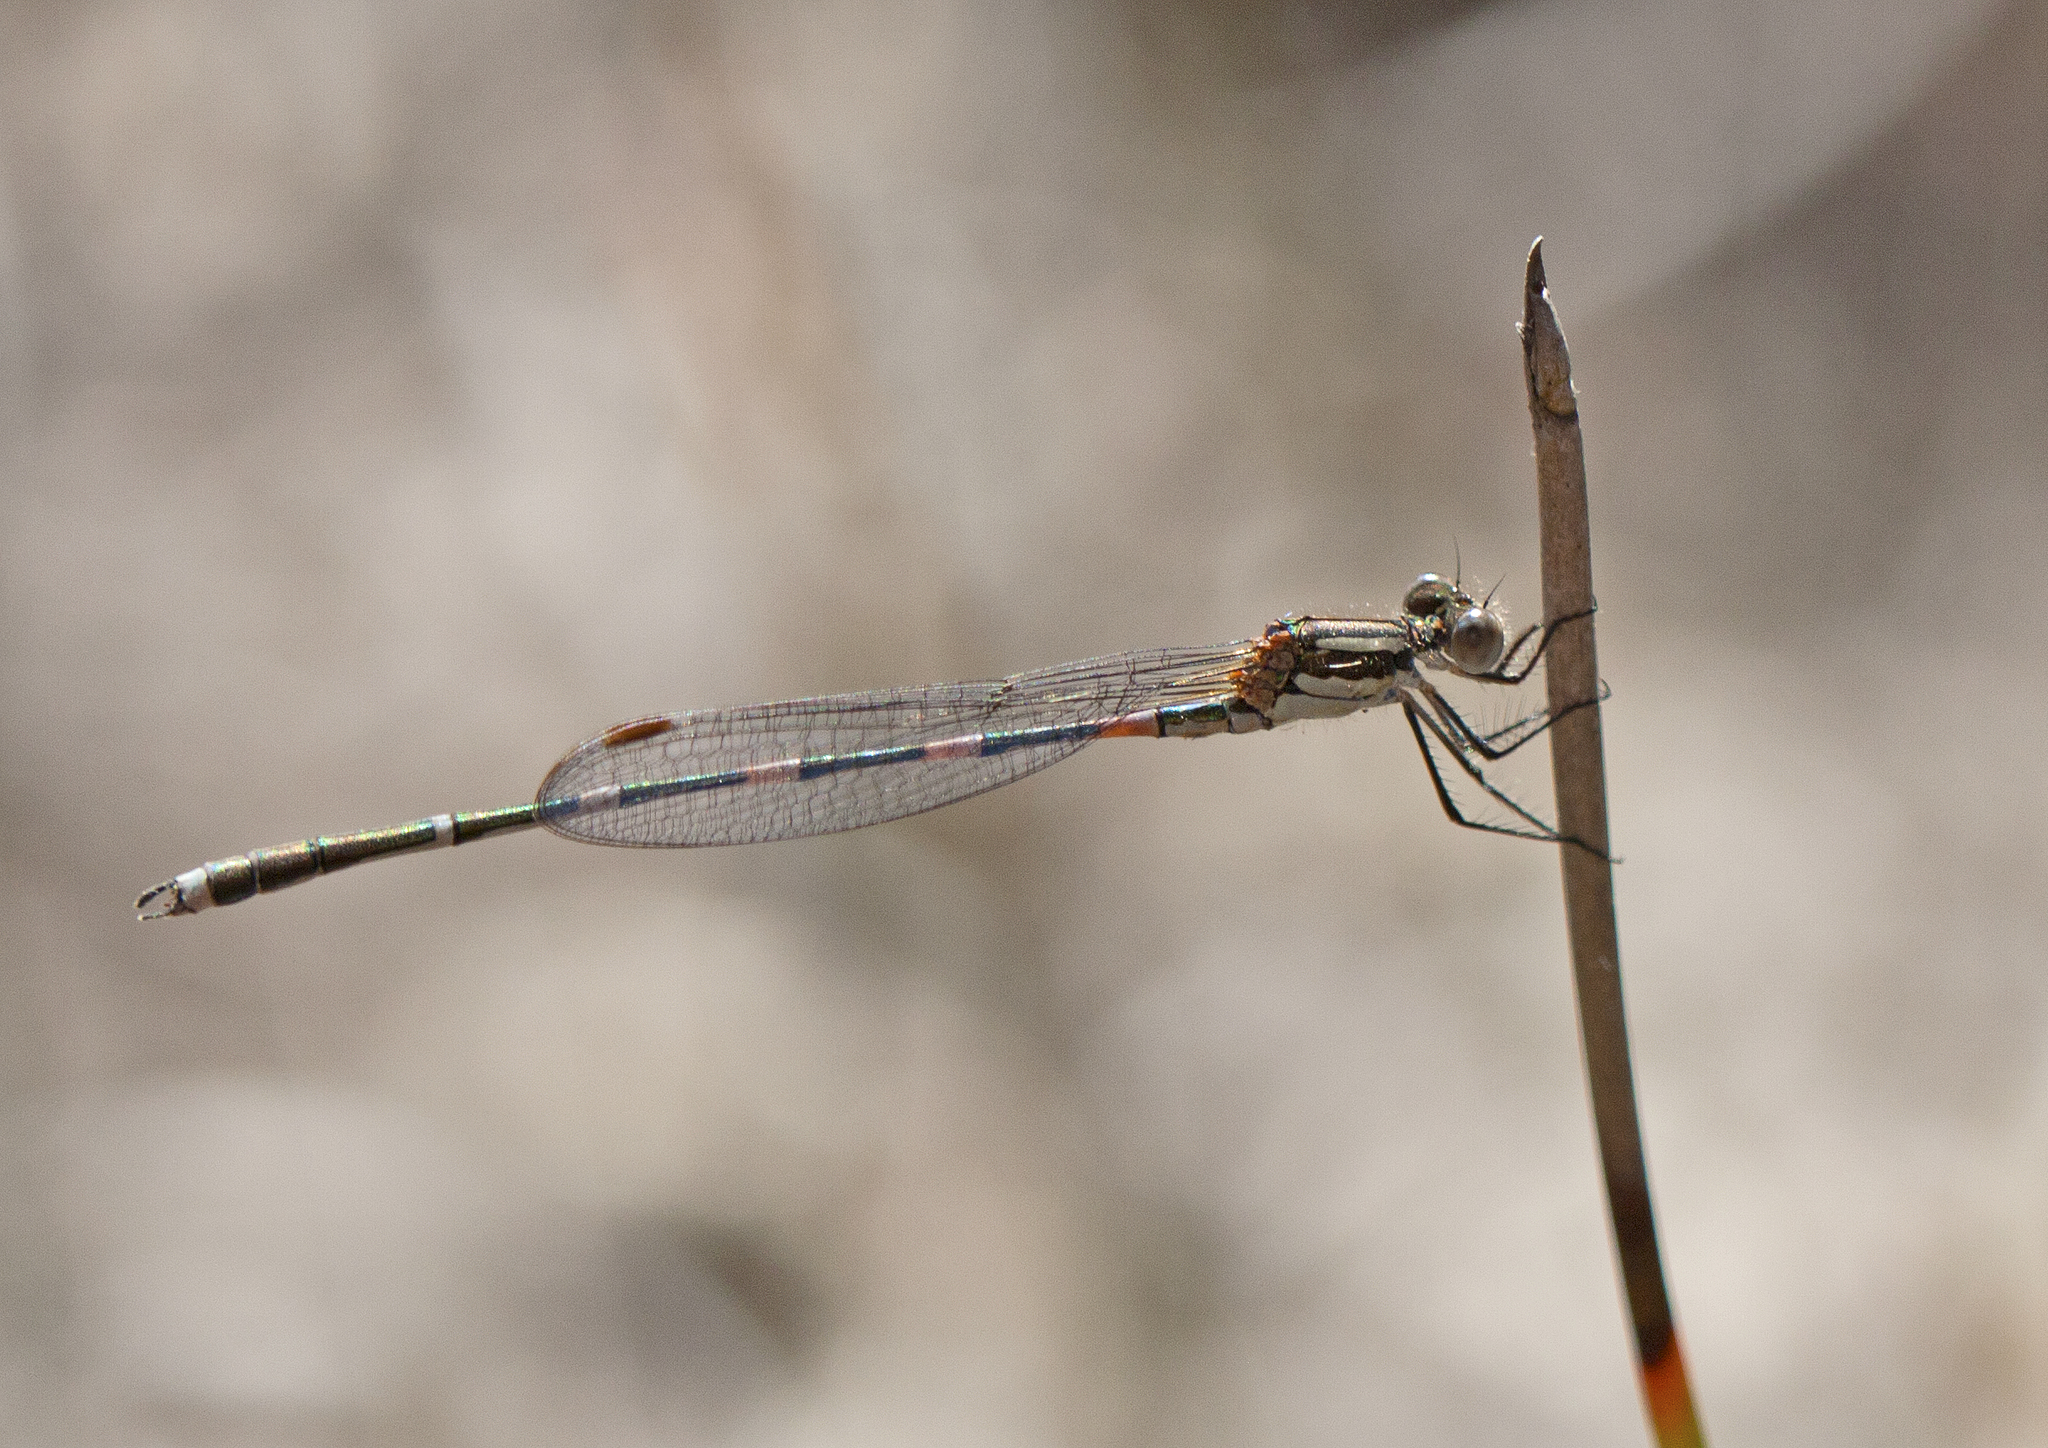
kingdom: Animalia
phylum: Arthropoda
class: Insecta
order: Odonata
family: Lestidae
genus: Austrolestes
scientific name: Austrolestes leda
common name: Wandering ringtail
